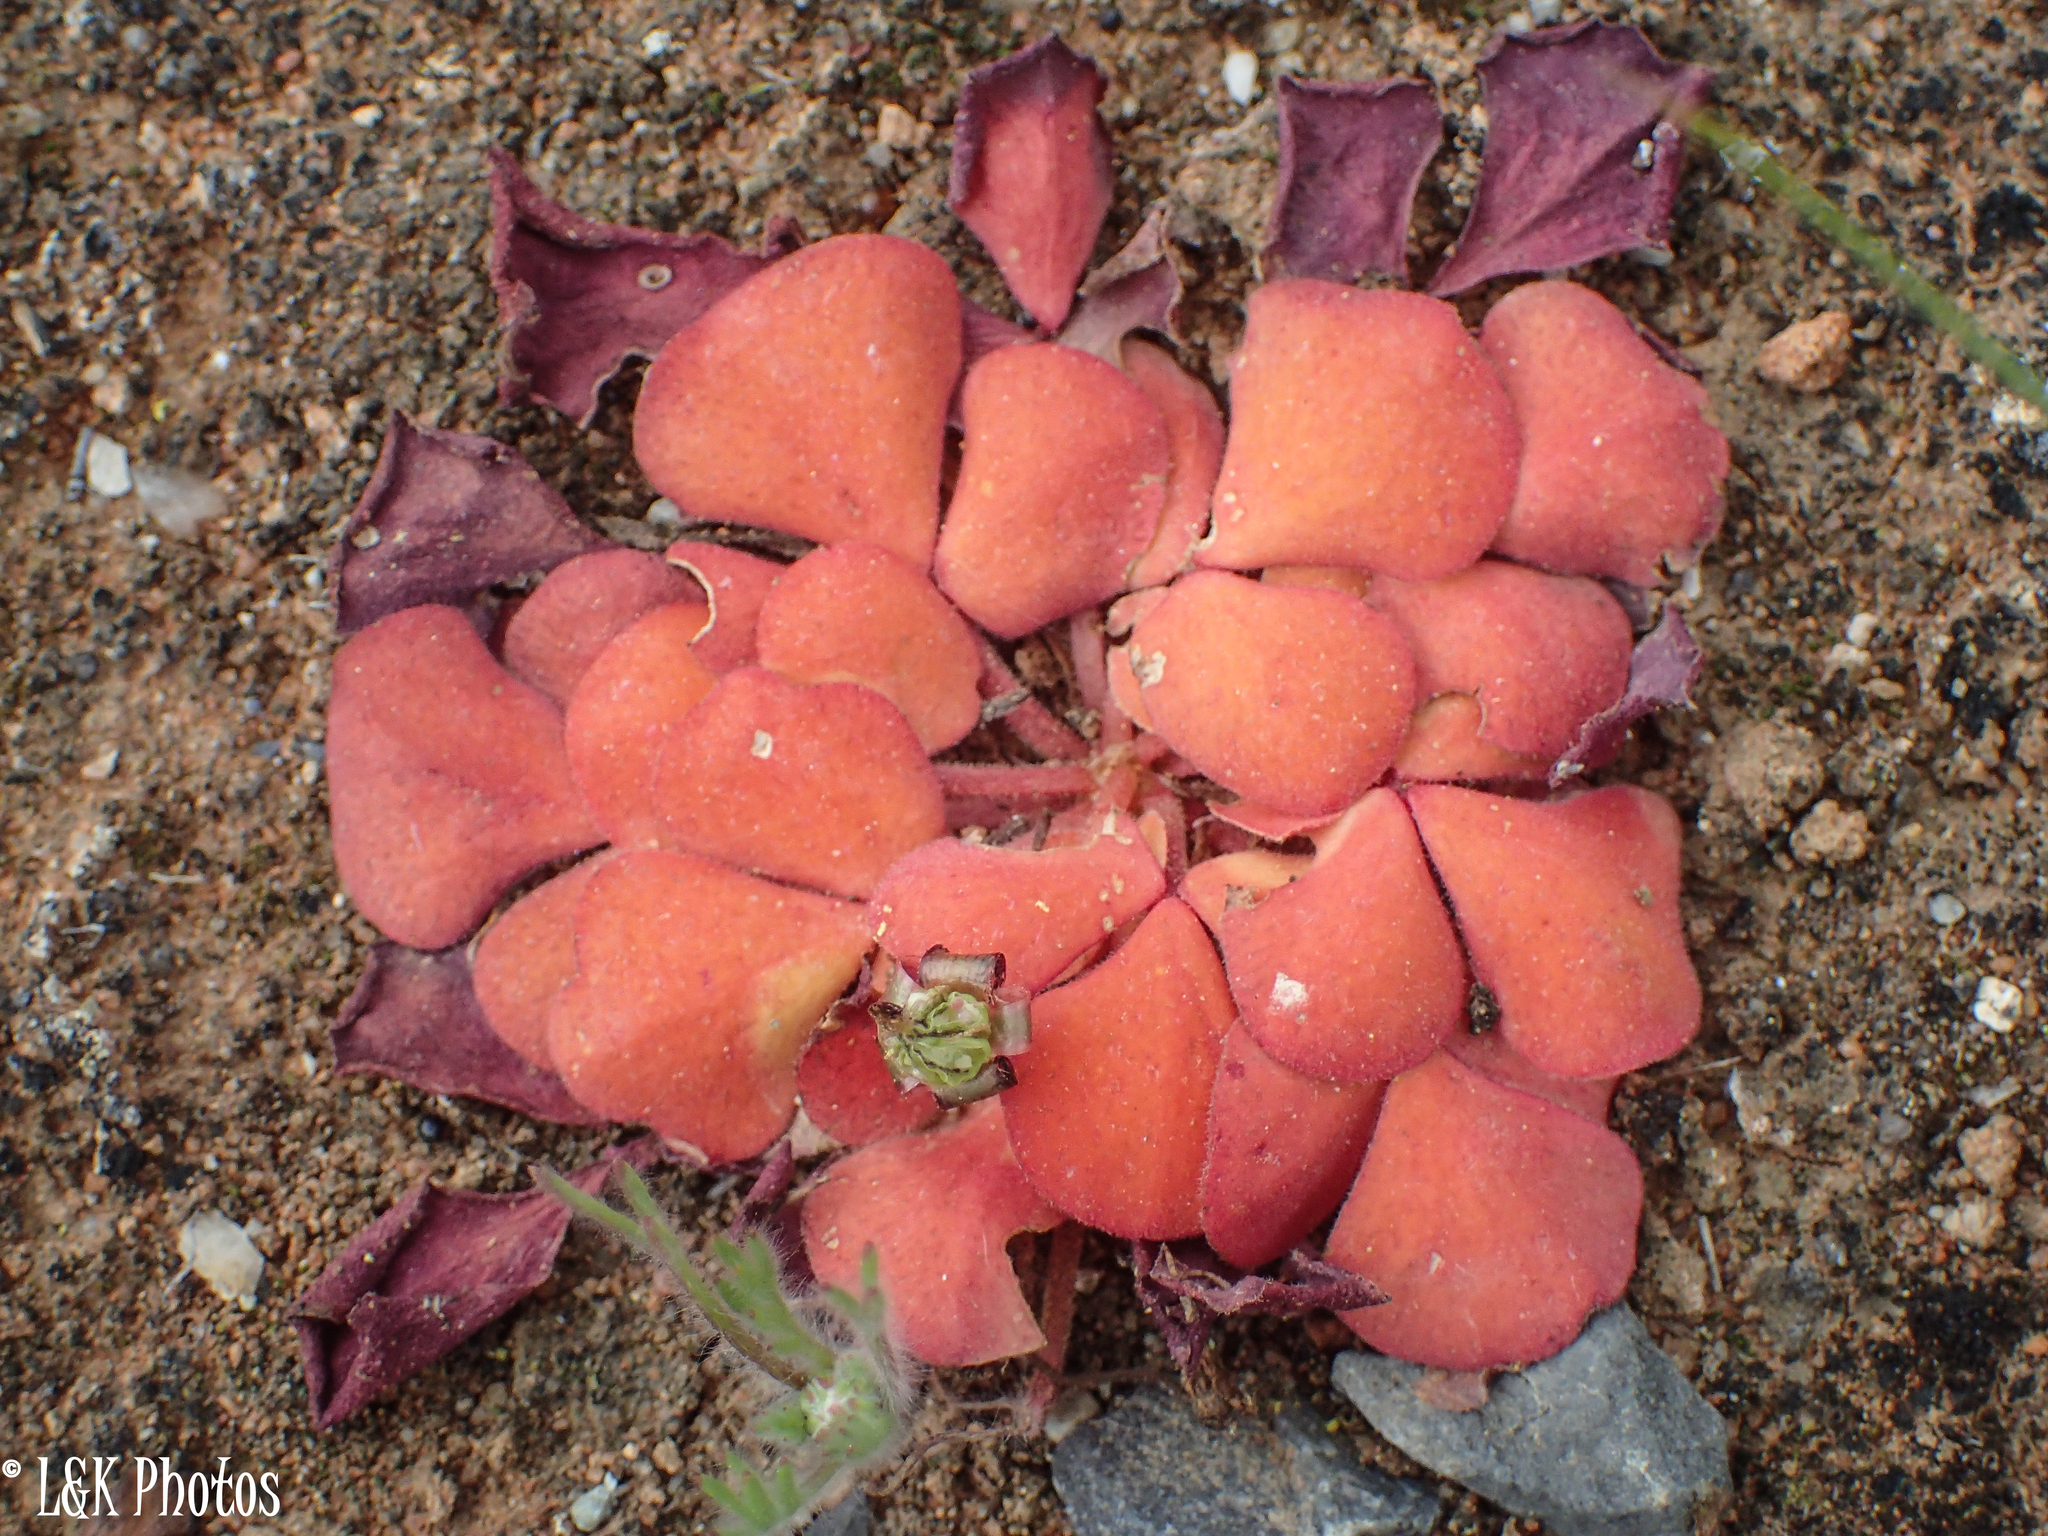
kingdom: Plantae
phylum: Tracheophyta
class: Magnoliopsida
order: Oxalidales
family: Oxalidaceae
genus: Oxalis
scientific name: Oxalis purpurea
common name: Purple woodsorrel
